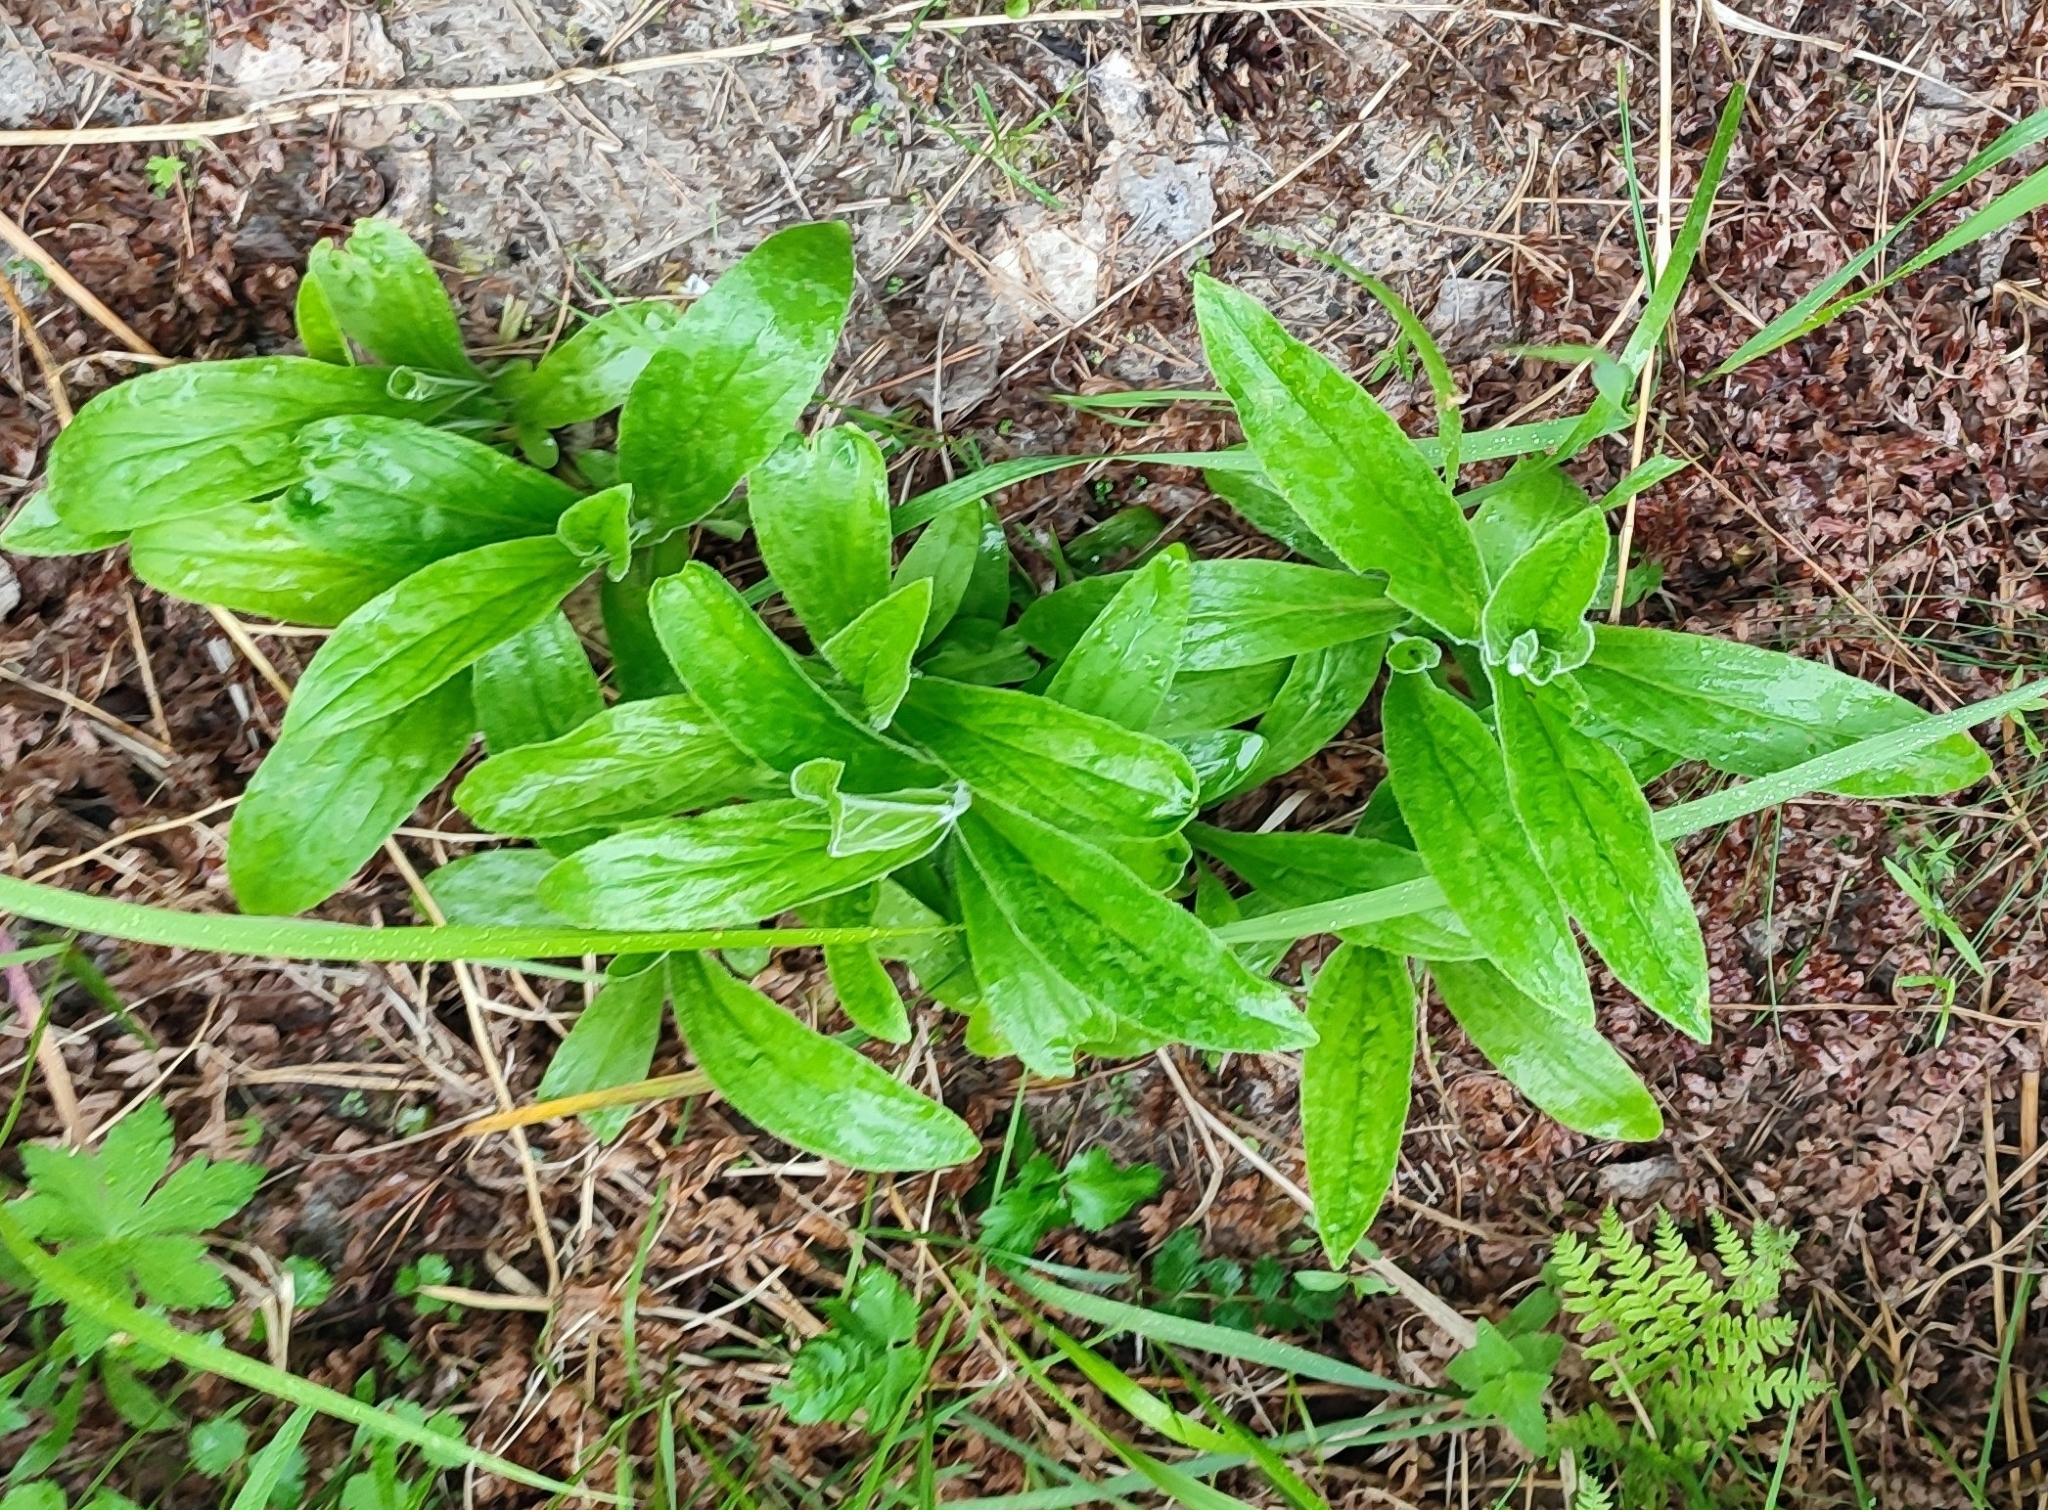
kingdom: Plantae
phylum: Tracheophyta
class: Magnoliopsida
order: Lamiales
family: Plantaginaceae
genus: Digitalis
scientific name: Digitalis grandiflora
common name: Yellow foxglove
